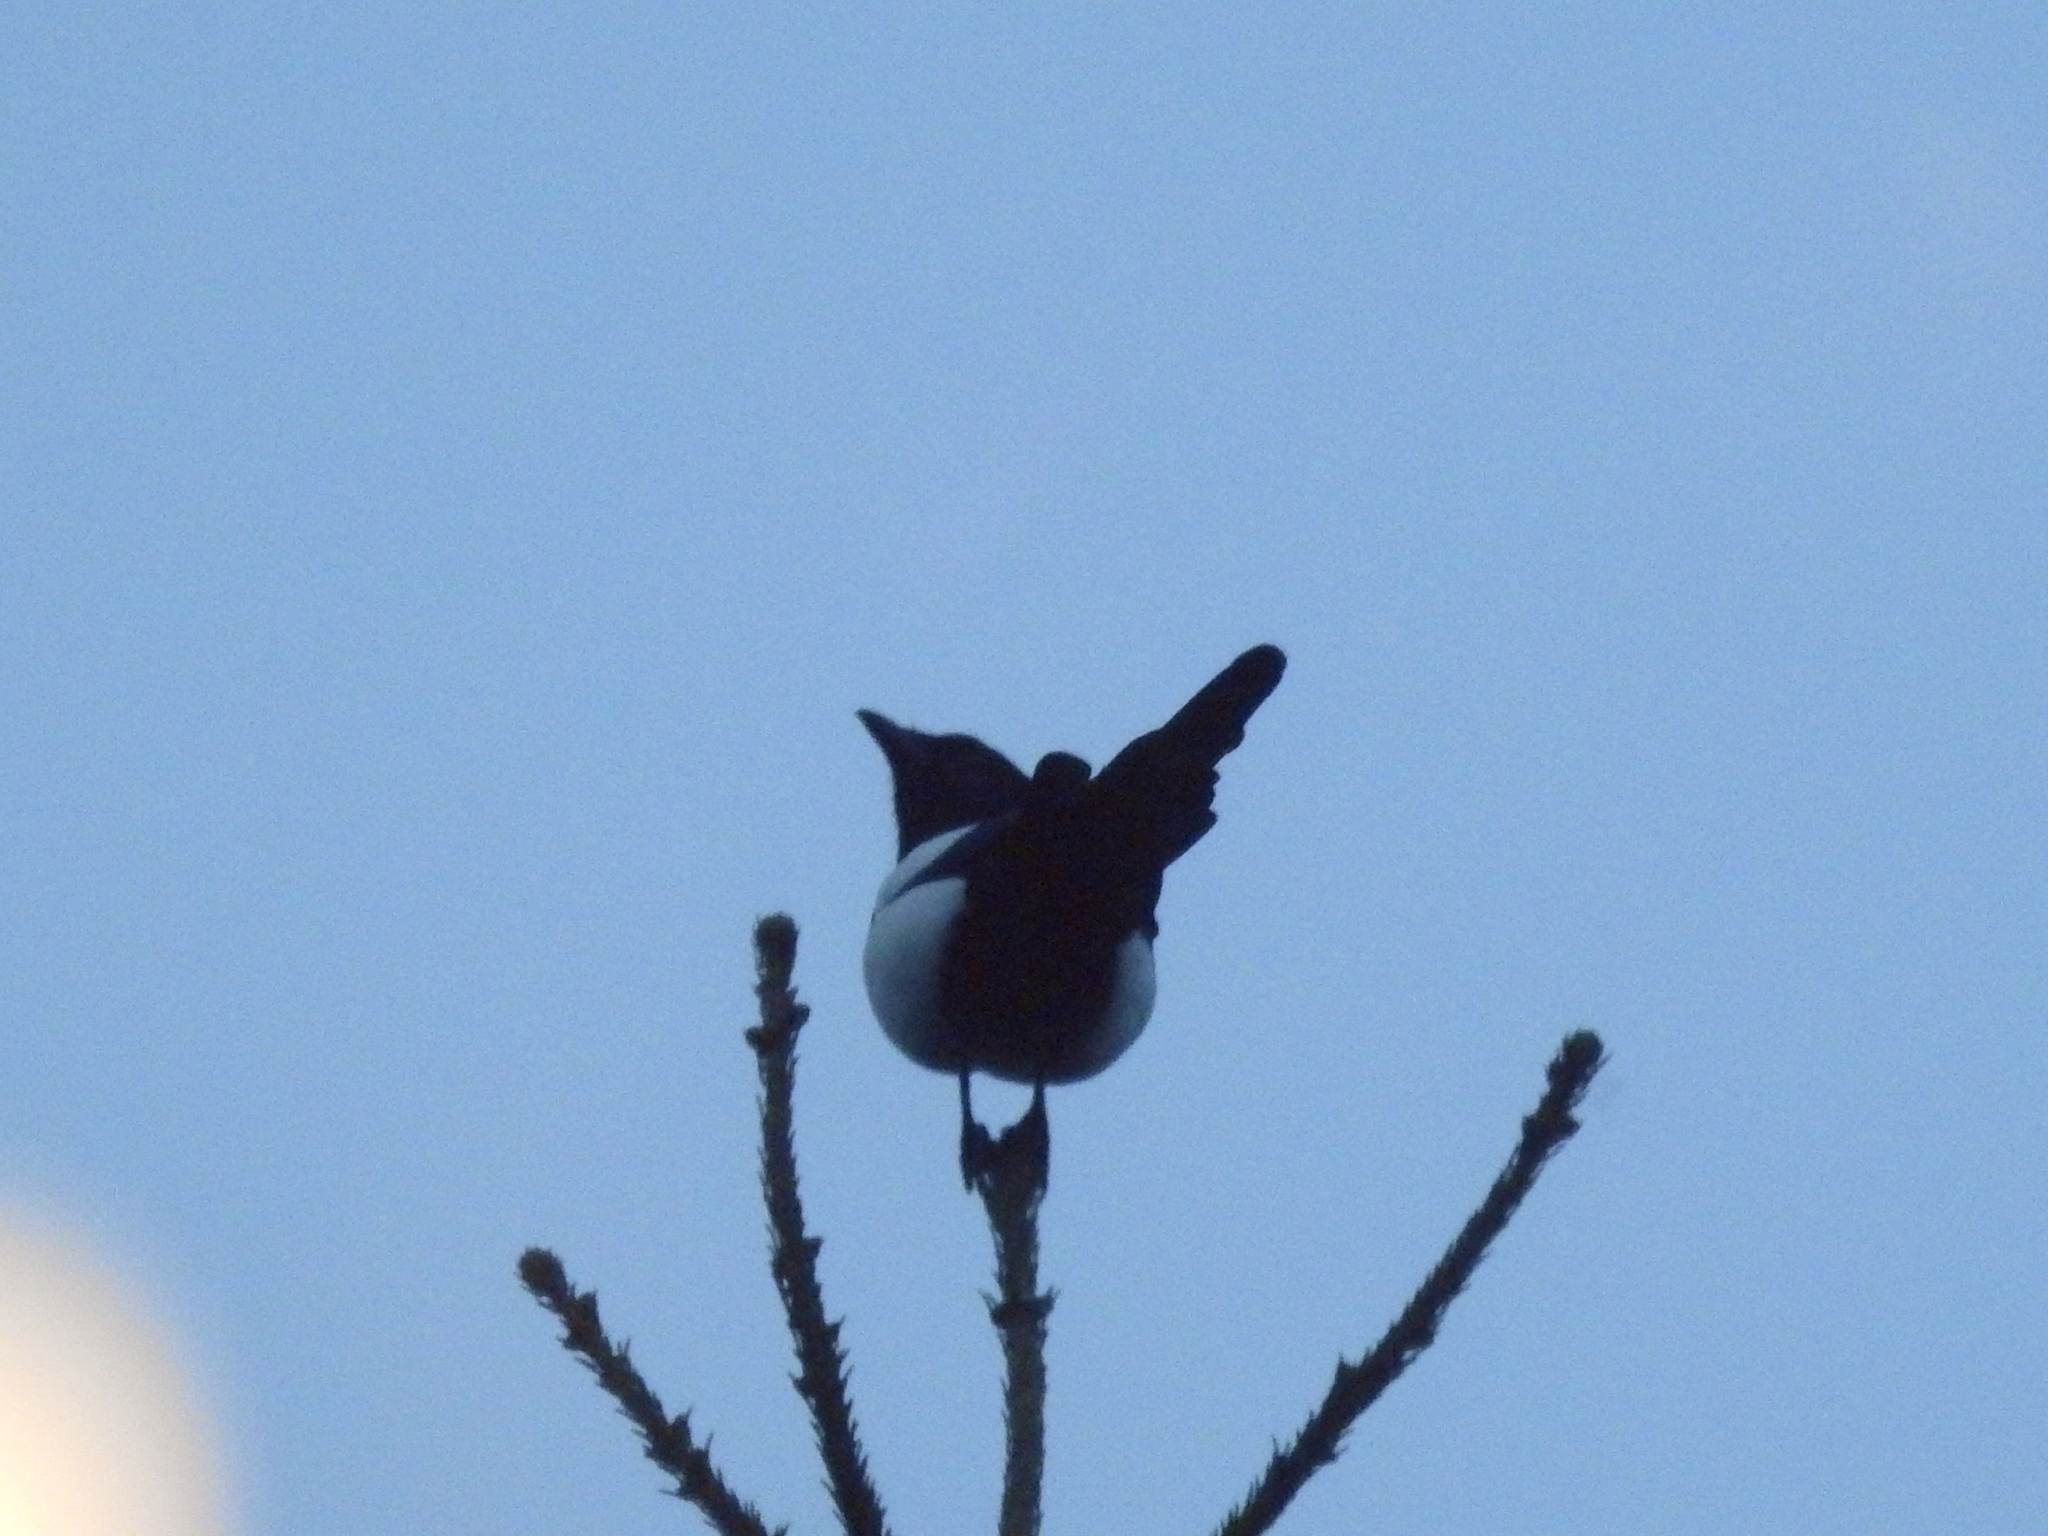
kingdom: Animalia
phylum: Chordata
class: Aves
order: Passeriformes
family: Corvidae
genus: Pica
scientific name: Pica pica
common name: Eurasian magpie
